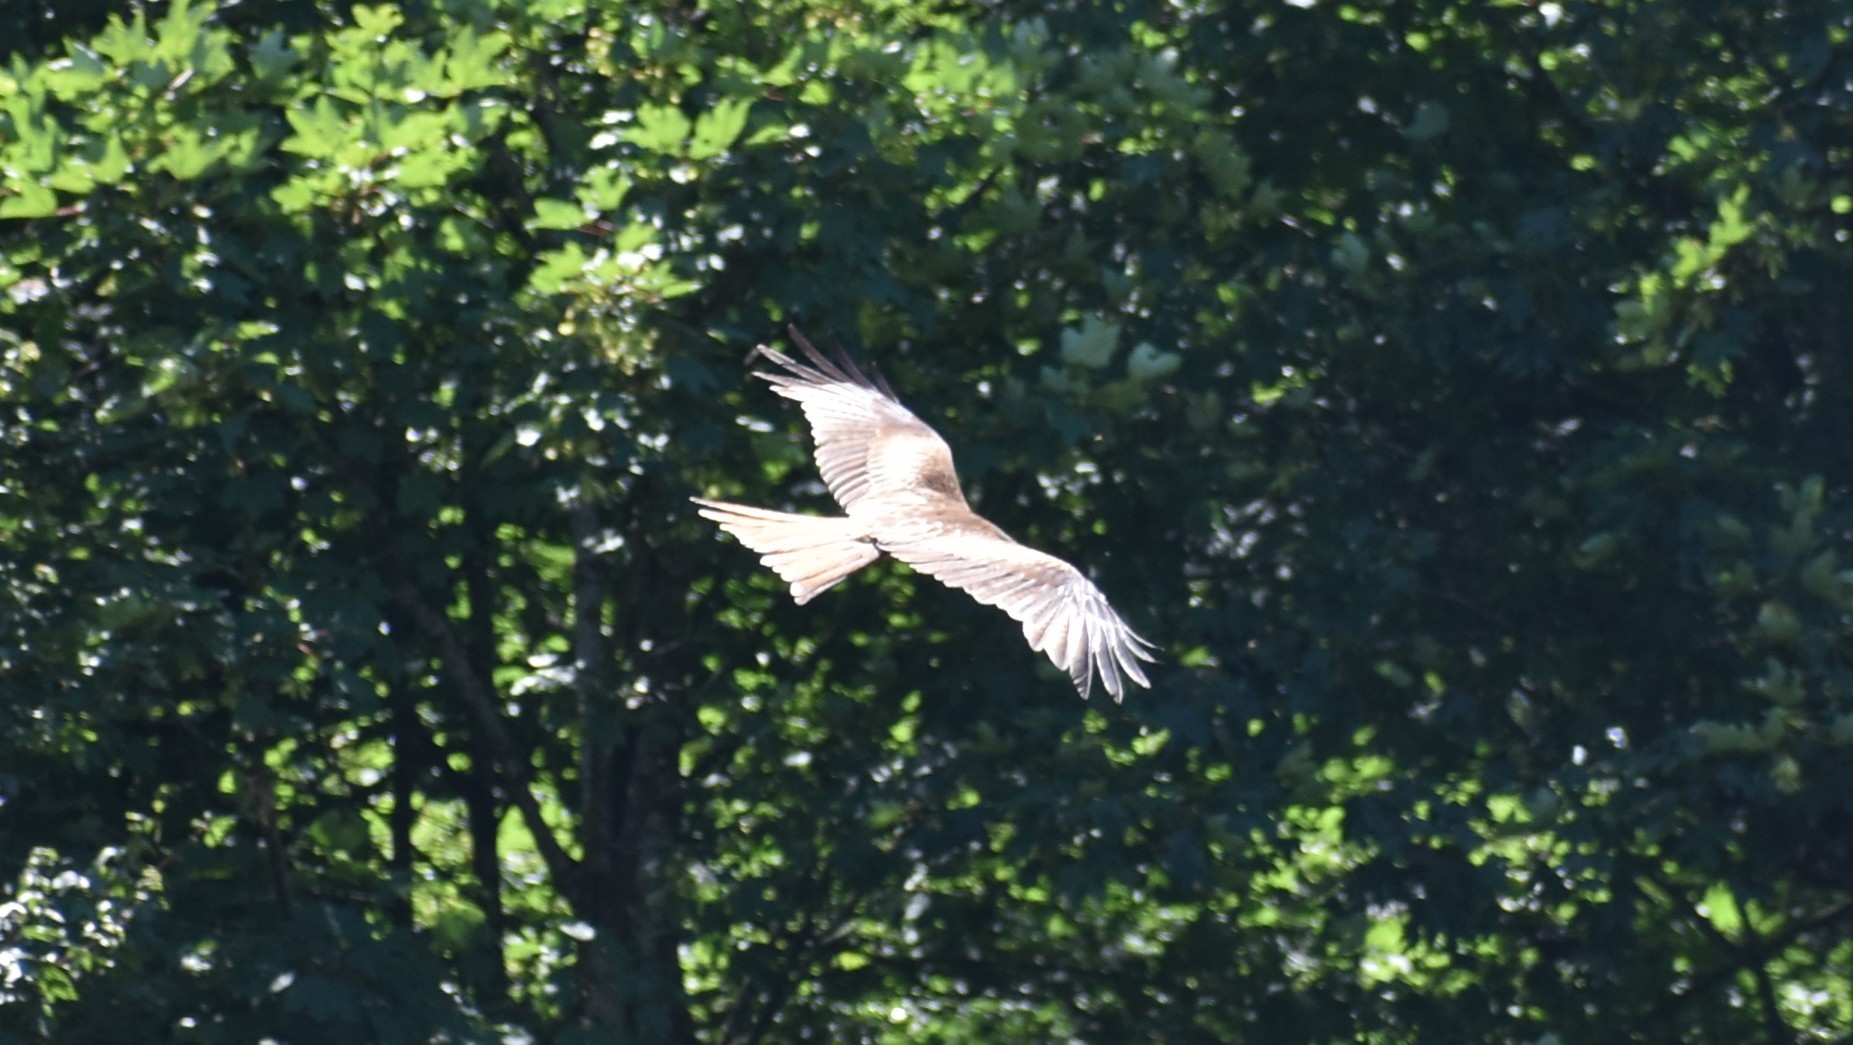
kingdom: Animalia
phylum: Chordata
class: Aves
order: Accipitriformes
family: Accipitridae
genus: Milvus
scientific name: Milvus milvus
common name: Red kite
